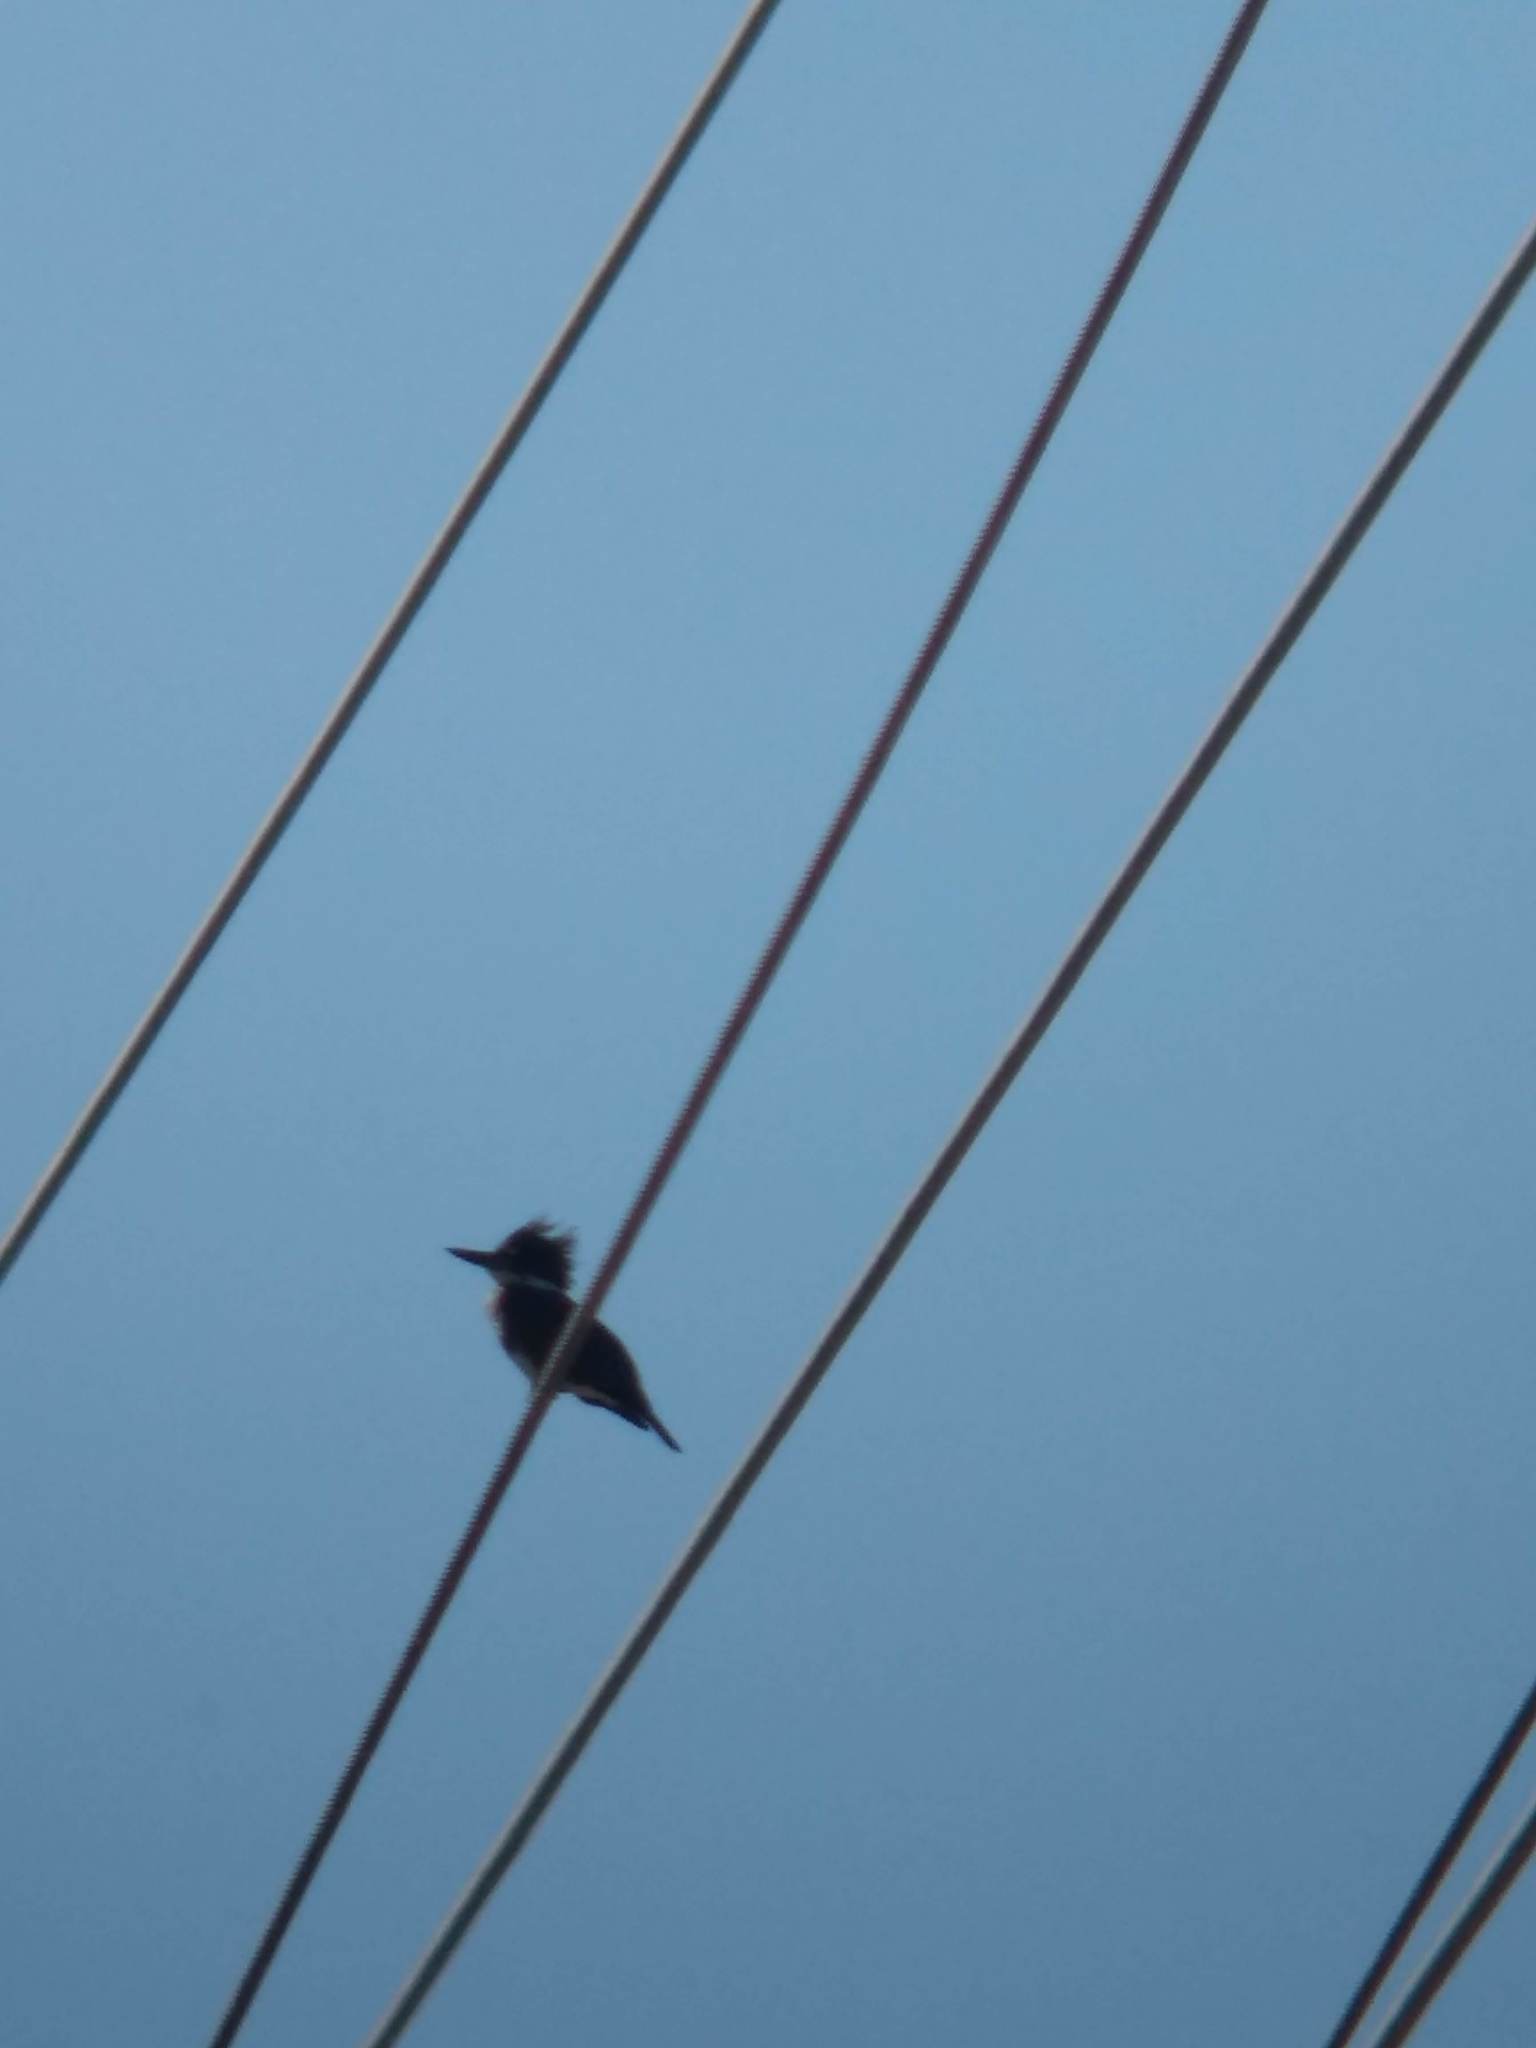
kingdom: Animalia
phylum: Chordata
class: Aves
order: Coraciiformes
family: Alcedinidae
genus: Megaceryle
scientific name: Megaceryle alcyon
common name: Belted kingfisher
